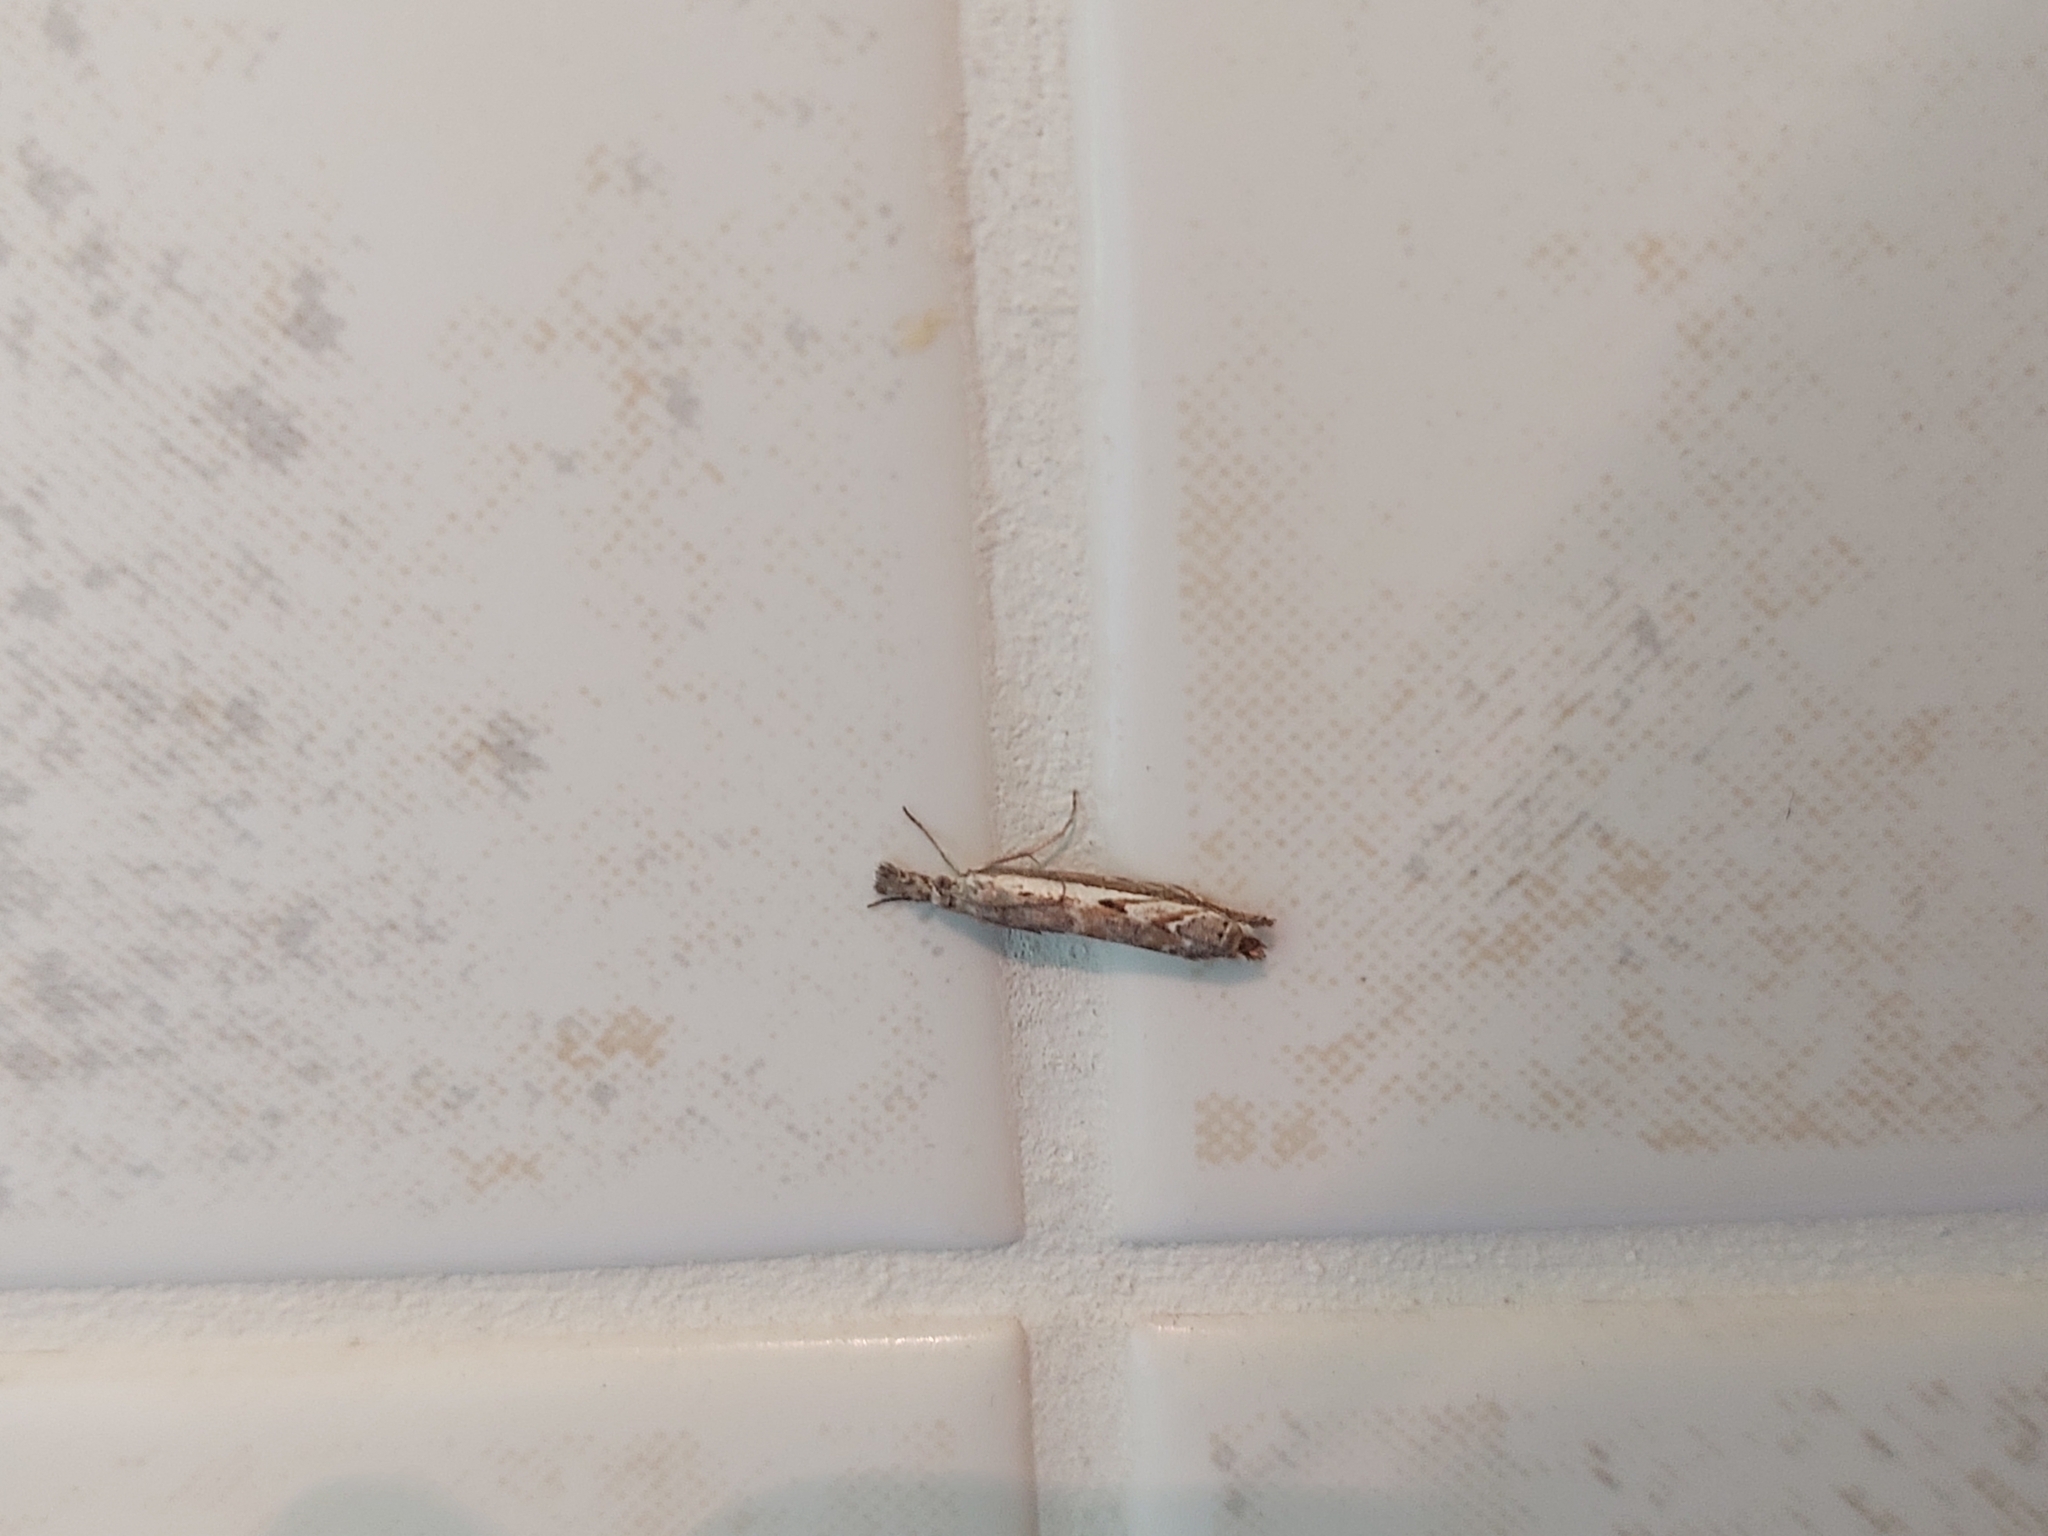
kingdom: Animalia
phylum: Arthropoda
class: Insecta
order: Lepidoptera
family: Crambidae
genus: Platytes
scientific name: Platytes alpinella
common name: Hook-tipped grass-veneer
